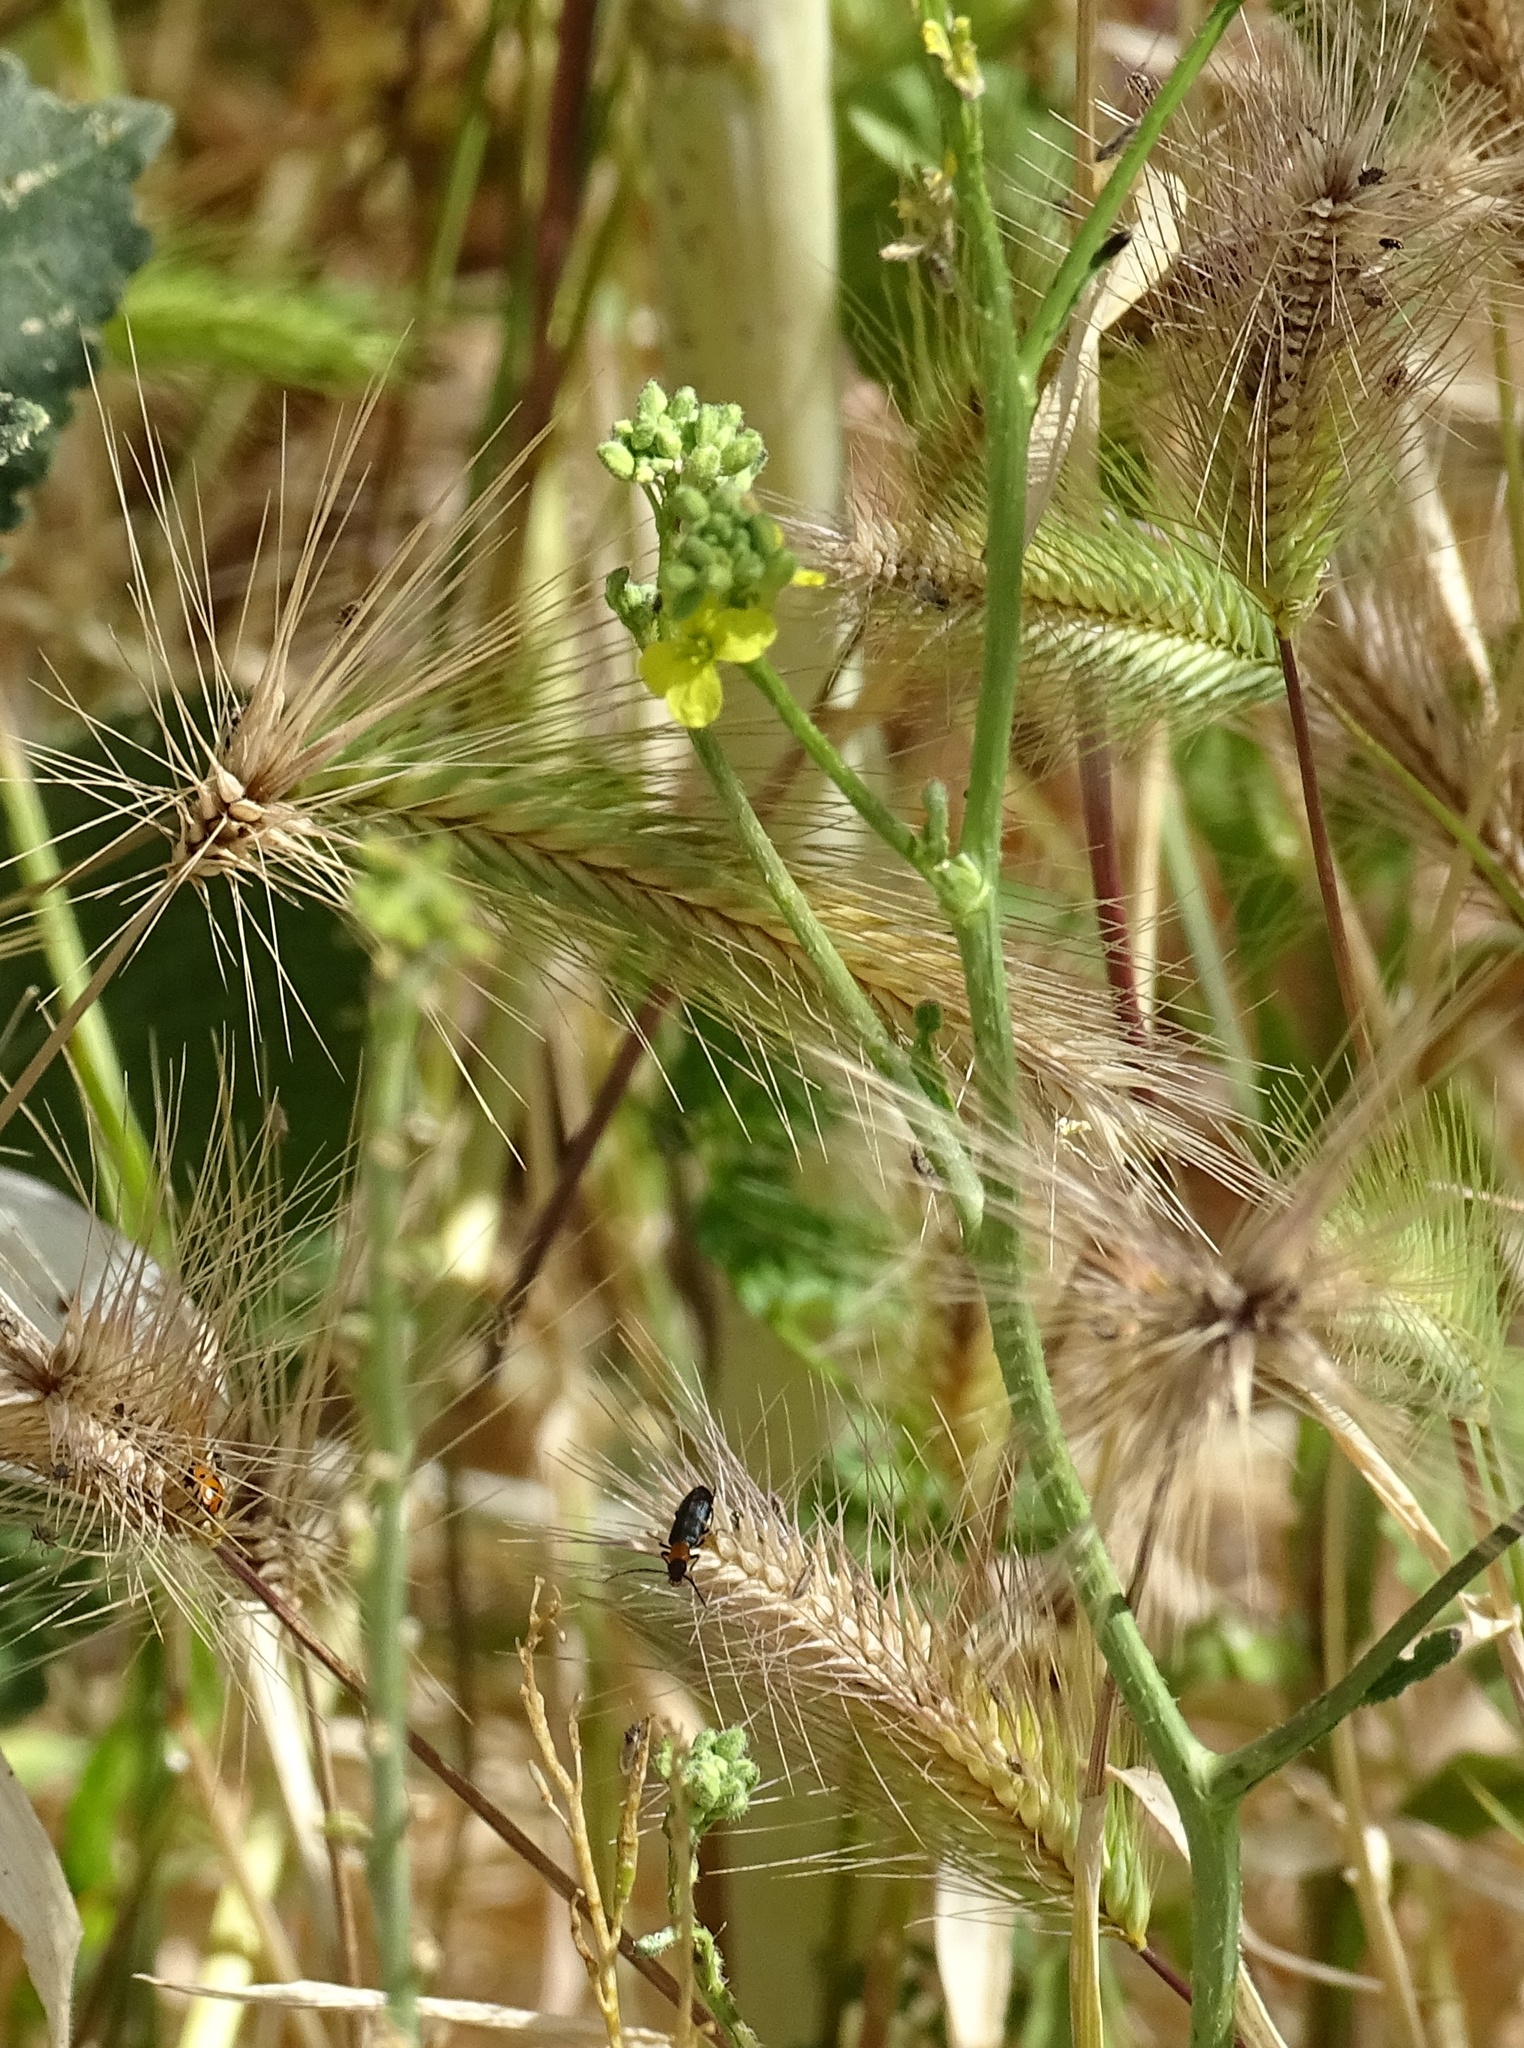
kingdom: Plantae
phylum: Tracheophyta
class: Liliopsida
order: Poales
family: Poaceae
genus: Hordeum
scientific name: Hordeum murinum
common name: Wall barley
